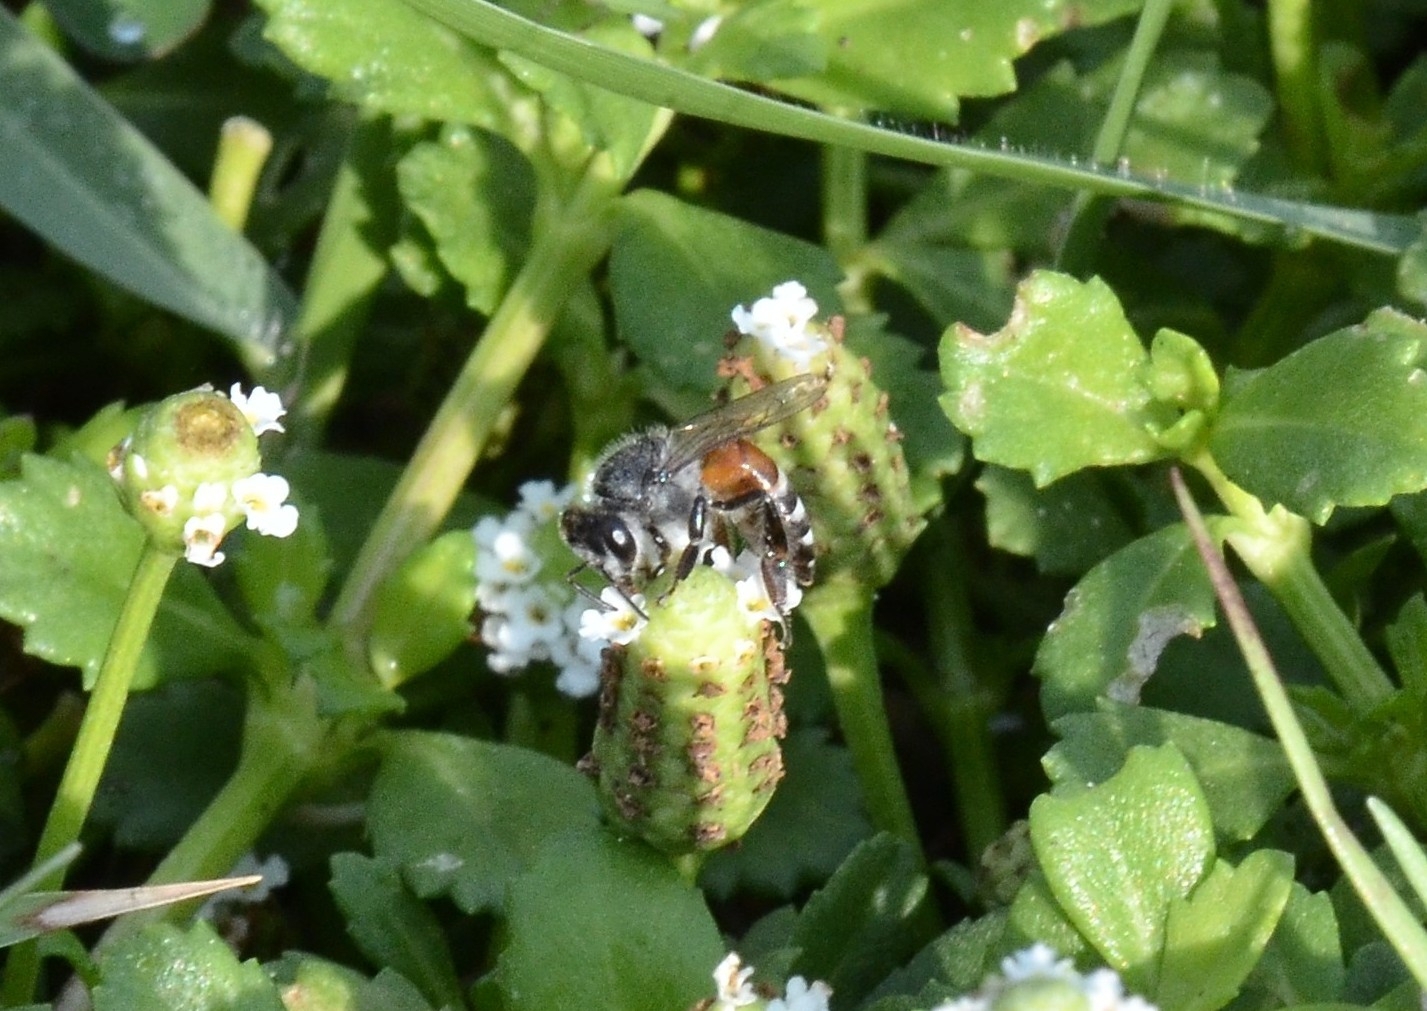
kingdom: Animalia
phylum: Arthropoda
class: Insecta
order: Hymenoptera
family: Apidae
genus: Apis
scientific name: Apis florea
